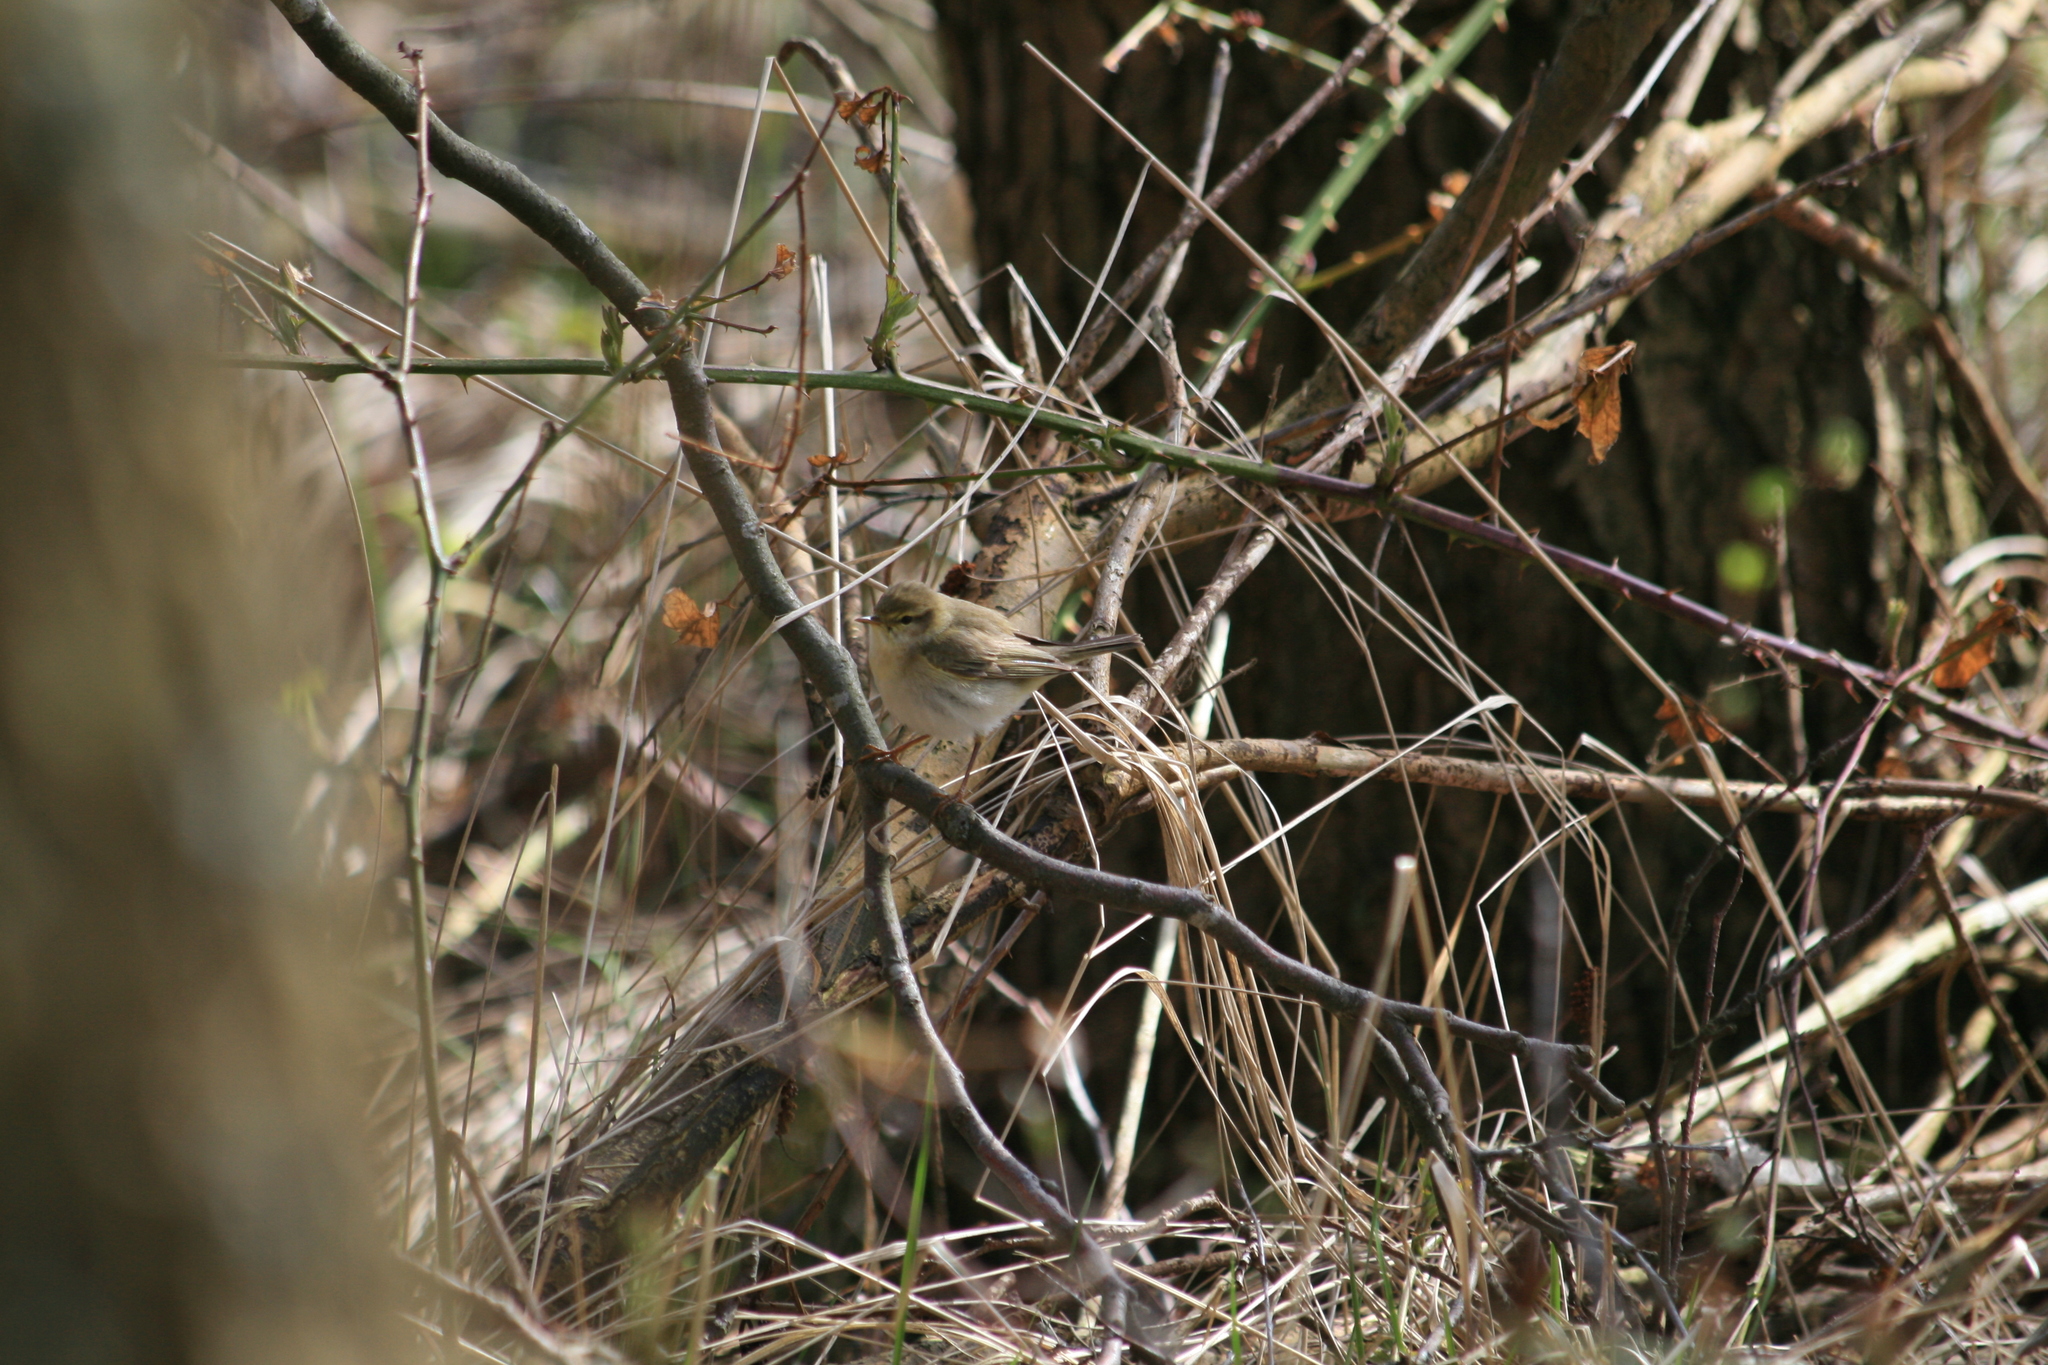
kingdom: Animalia
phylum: Chordata
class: Aves
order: Passeriformes
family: Phylloscopidae
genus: Phylloscopus
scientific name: Phylloscopus trochilus
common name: Willow warbler
